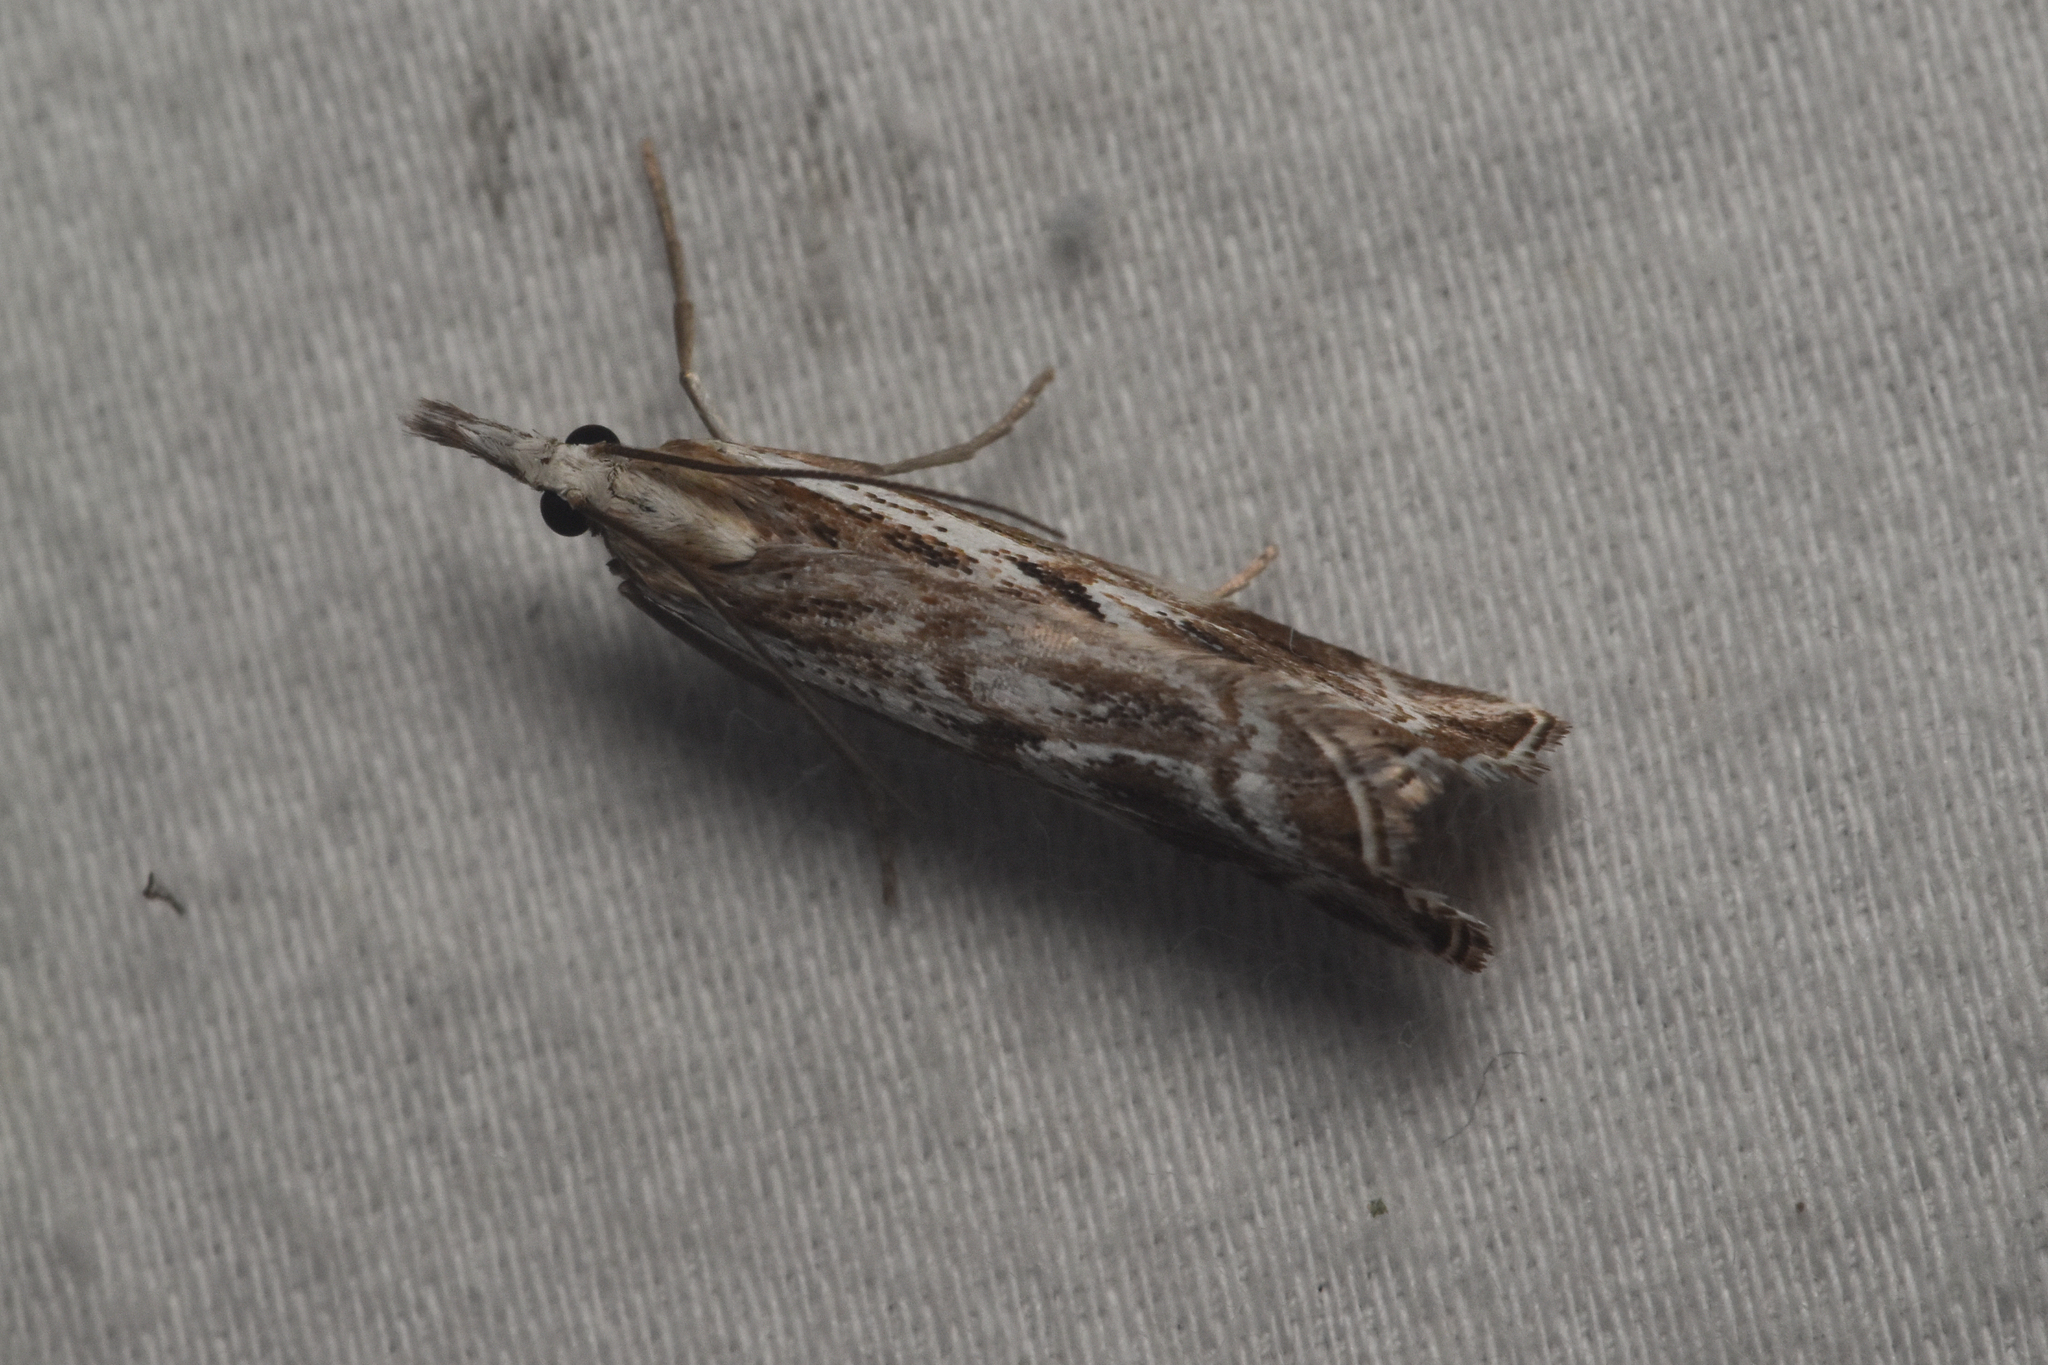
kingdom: Animalia
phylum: Arthropoda
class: Insecta
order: Lepidoptera
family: Crambidae
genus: Catoptria
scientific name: Catoptria oregonicus
